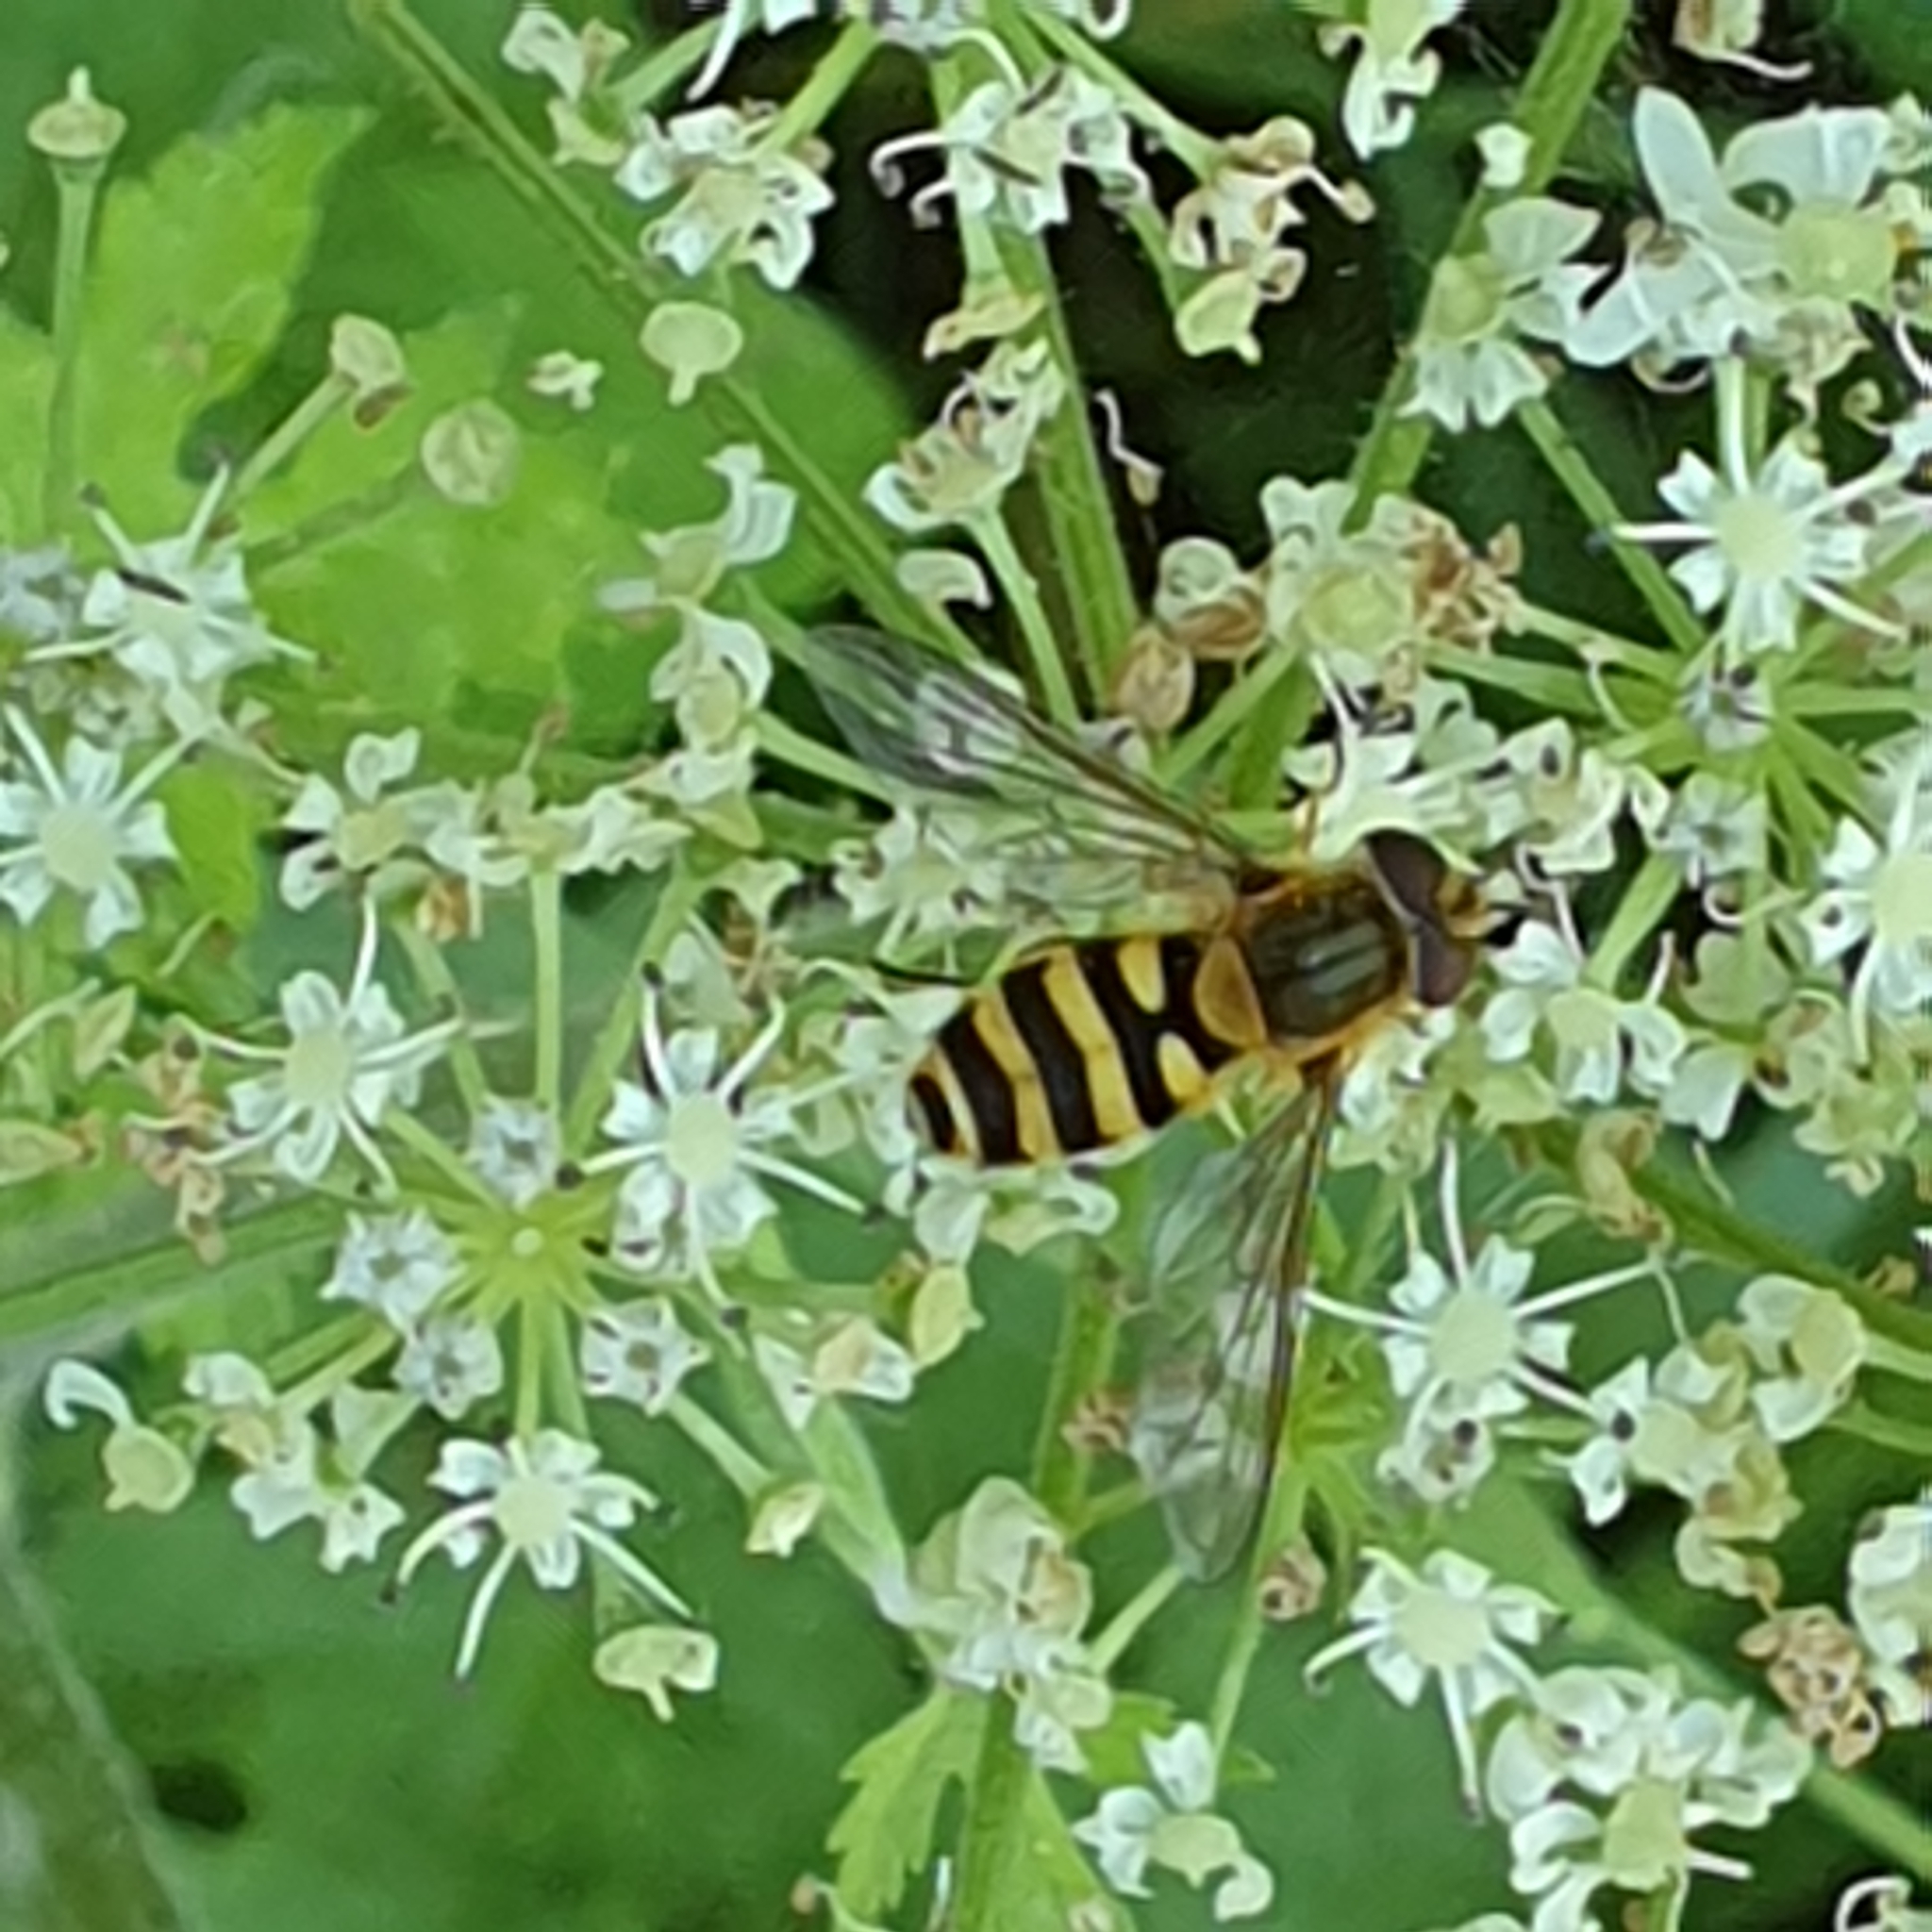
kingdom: Animalia
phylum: Arthropoda
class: Insecta
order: Diptera
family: Syrphidae
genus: Syrphus
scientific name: Syrphus
